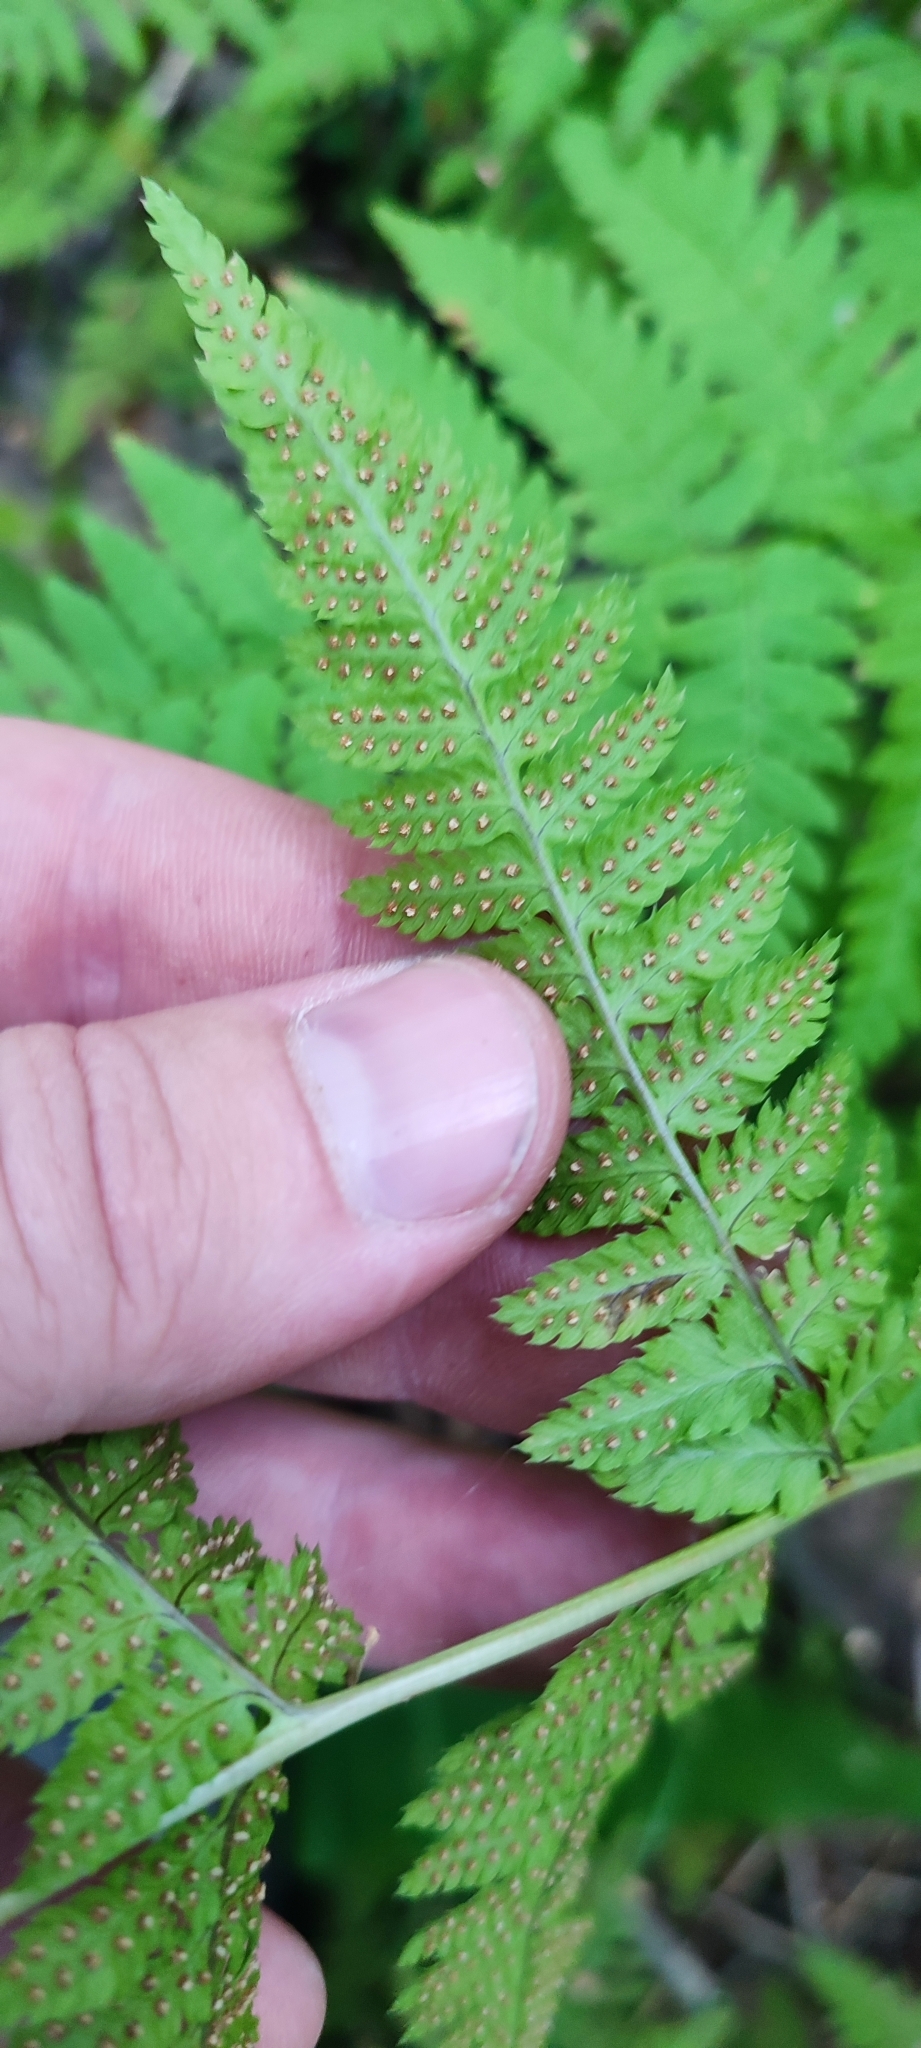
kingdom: Plantae
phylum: Tracheophyta
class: Polypodiopsida
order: Polypodiales
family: Dryopteridaceae
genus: Dryopteris
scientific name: Dryopteris carthusiana
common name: Narrow buckler-fern
